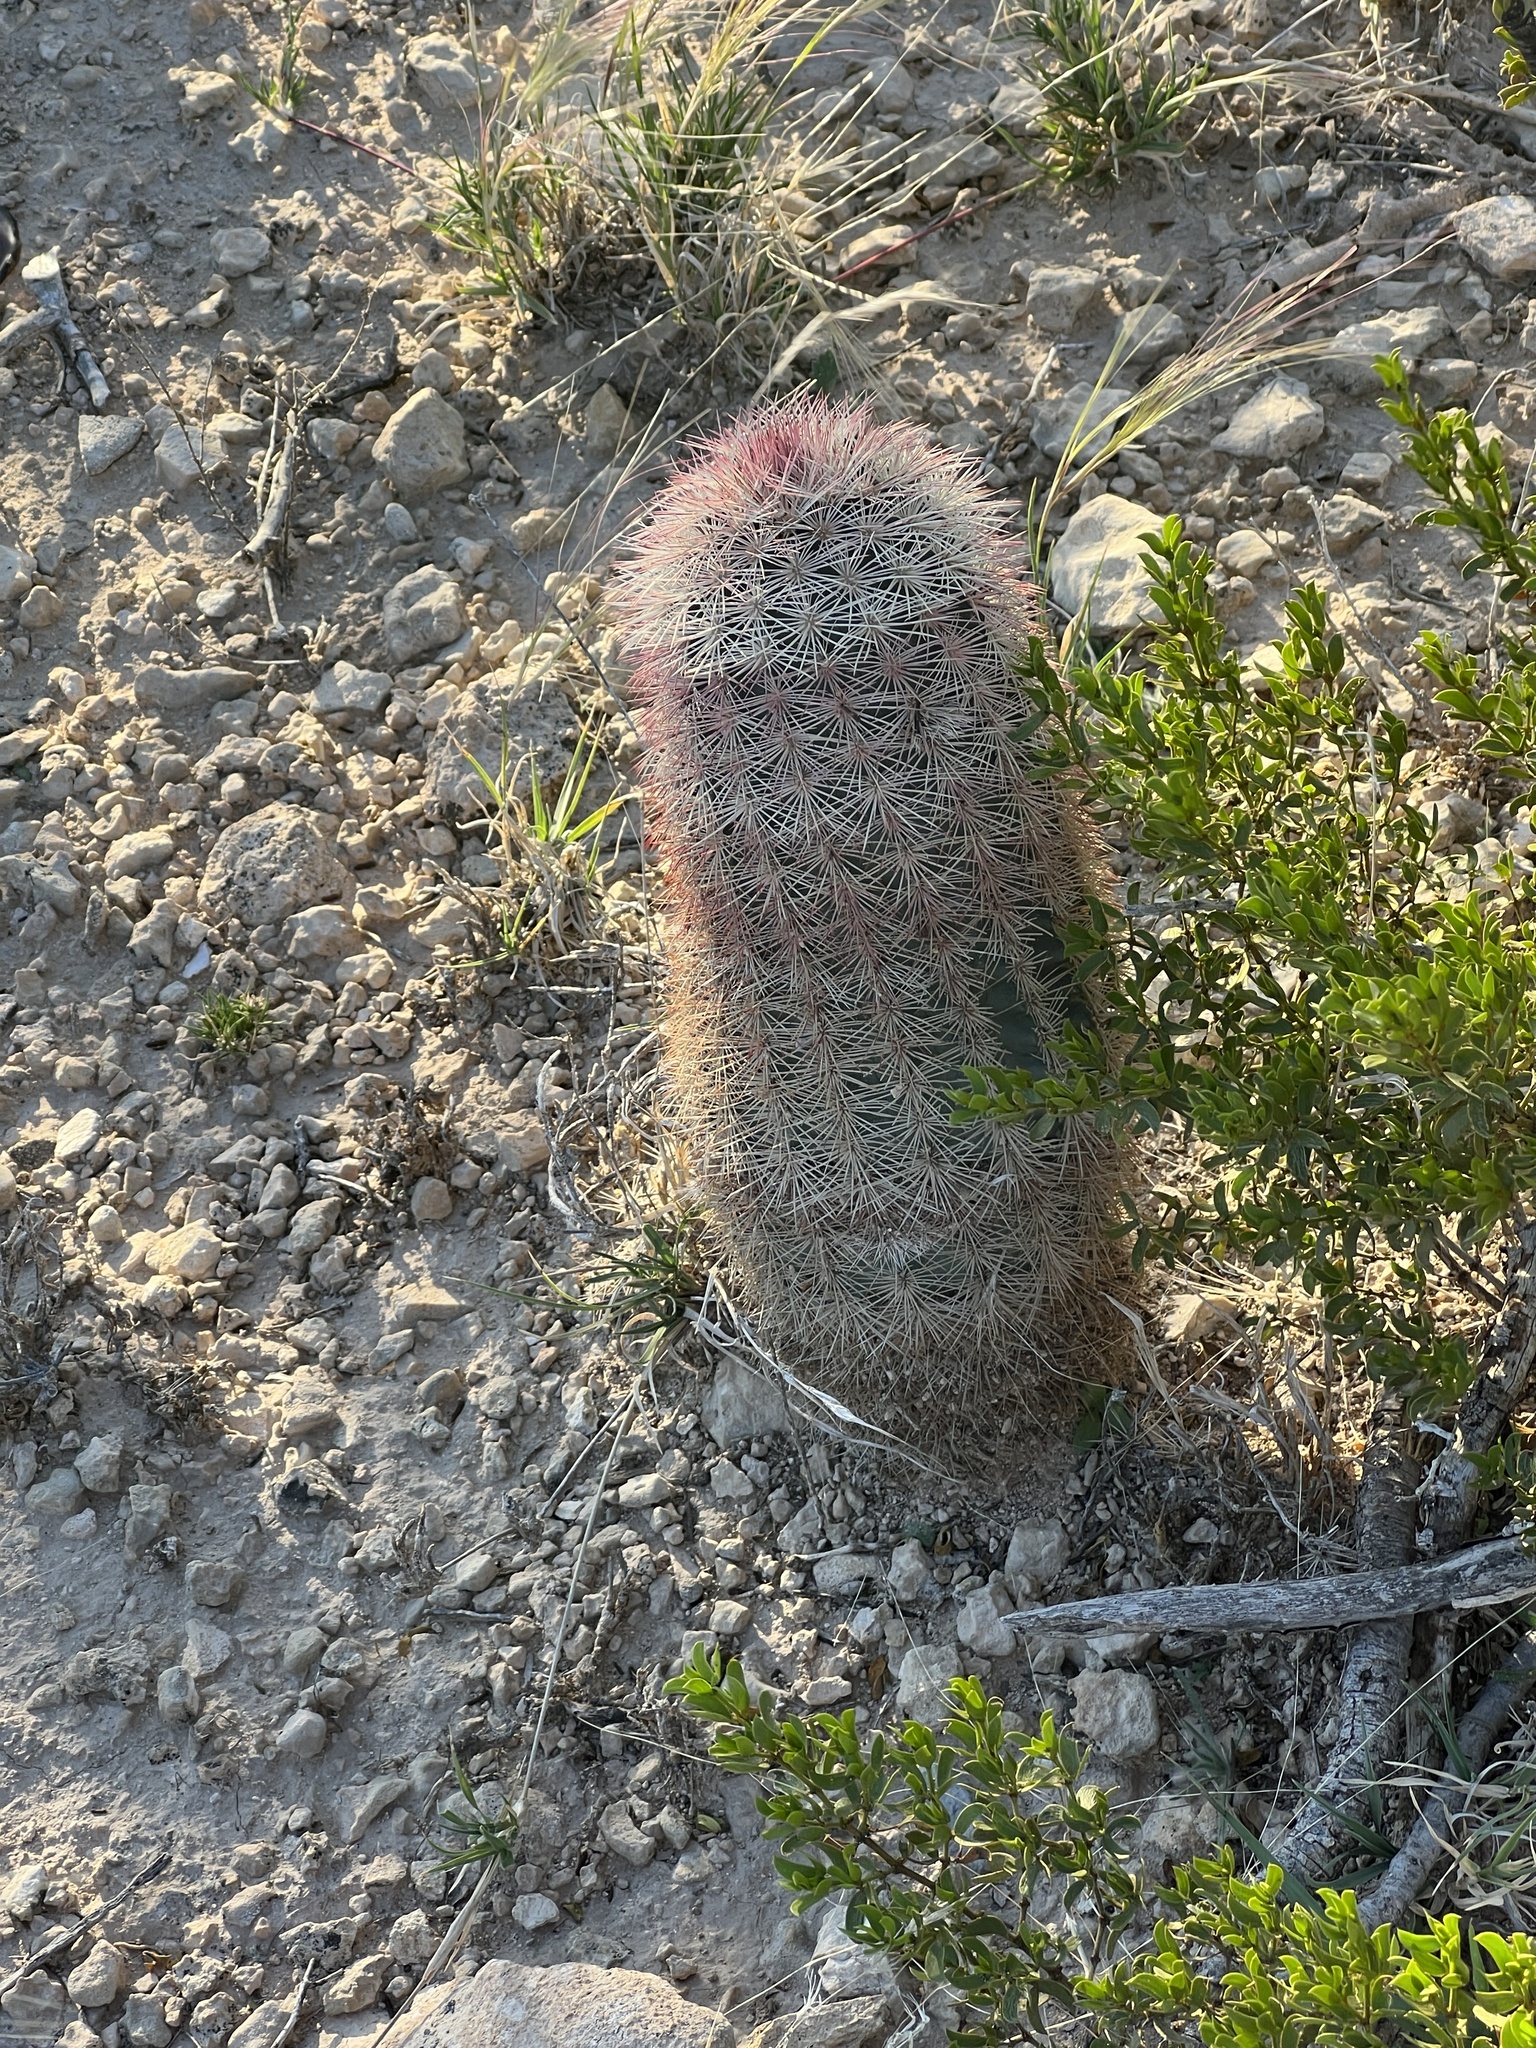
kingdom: Plantae
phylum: Tracheophyta
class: Magnoliopsida
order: Caryophyllales
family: Cactaceae
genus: Echinocereus
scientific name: Echinocereus dasyacanthus
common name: Spiny hedgehog cactus
